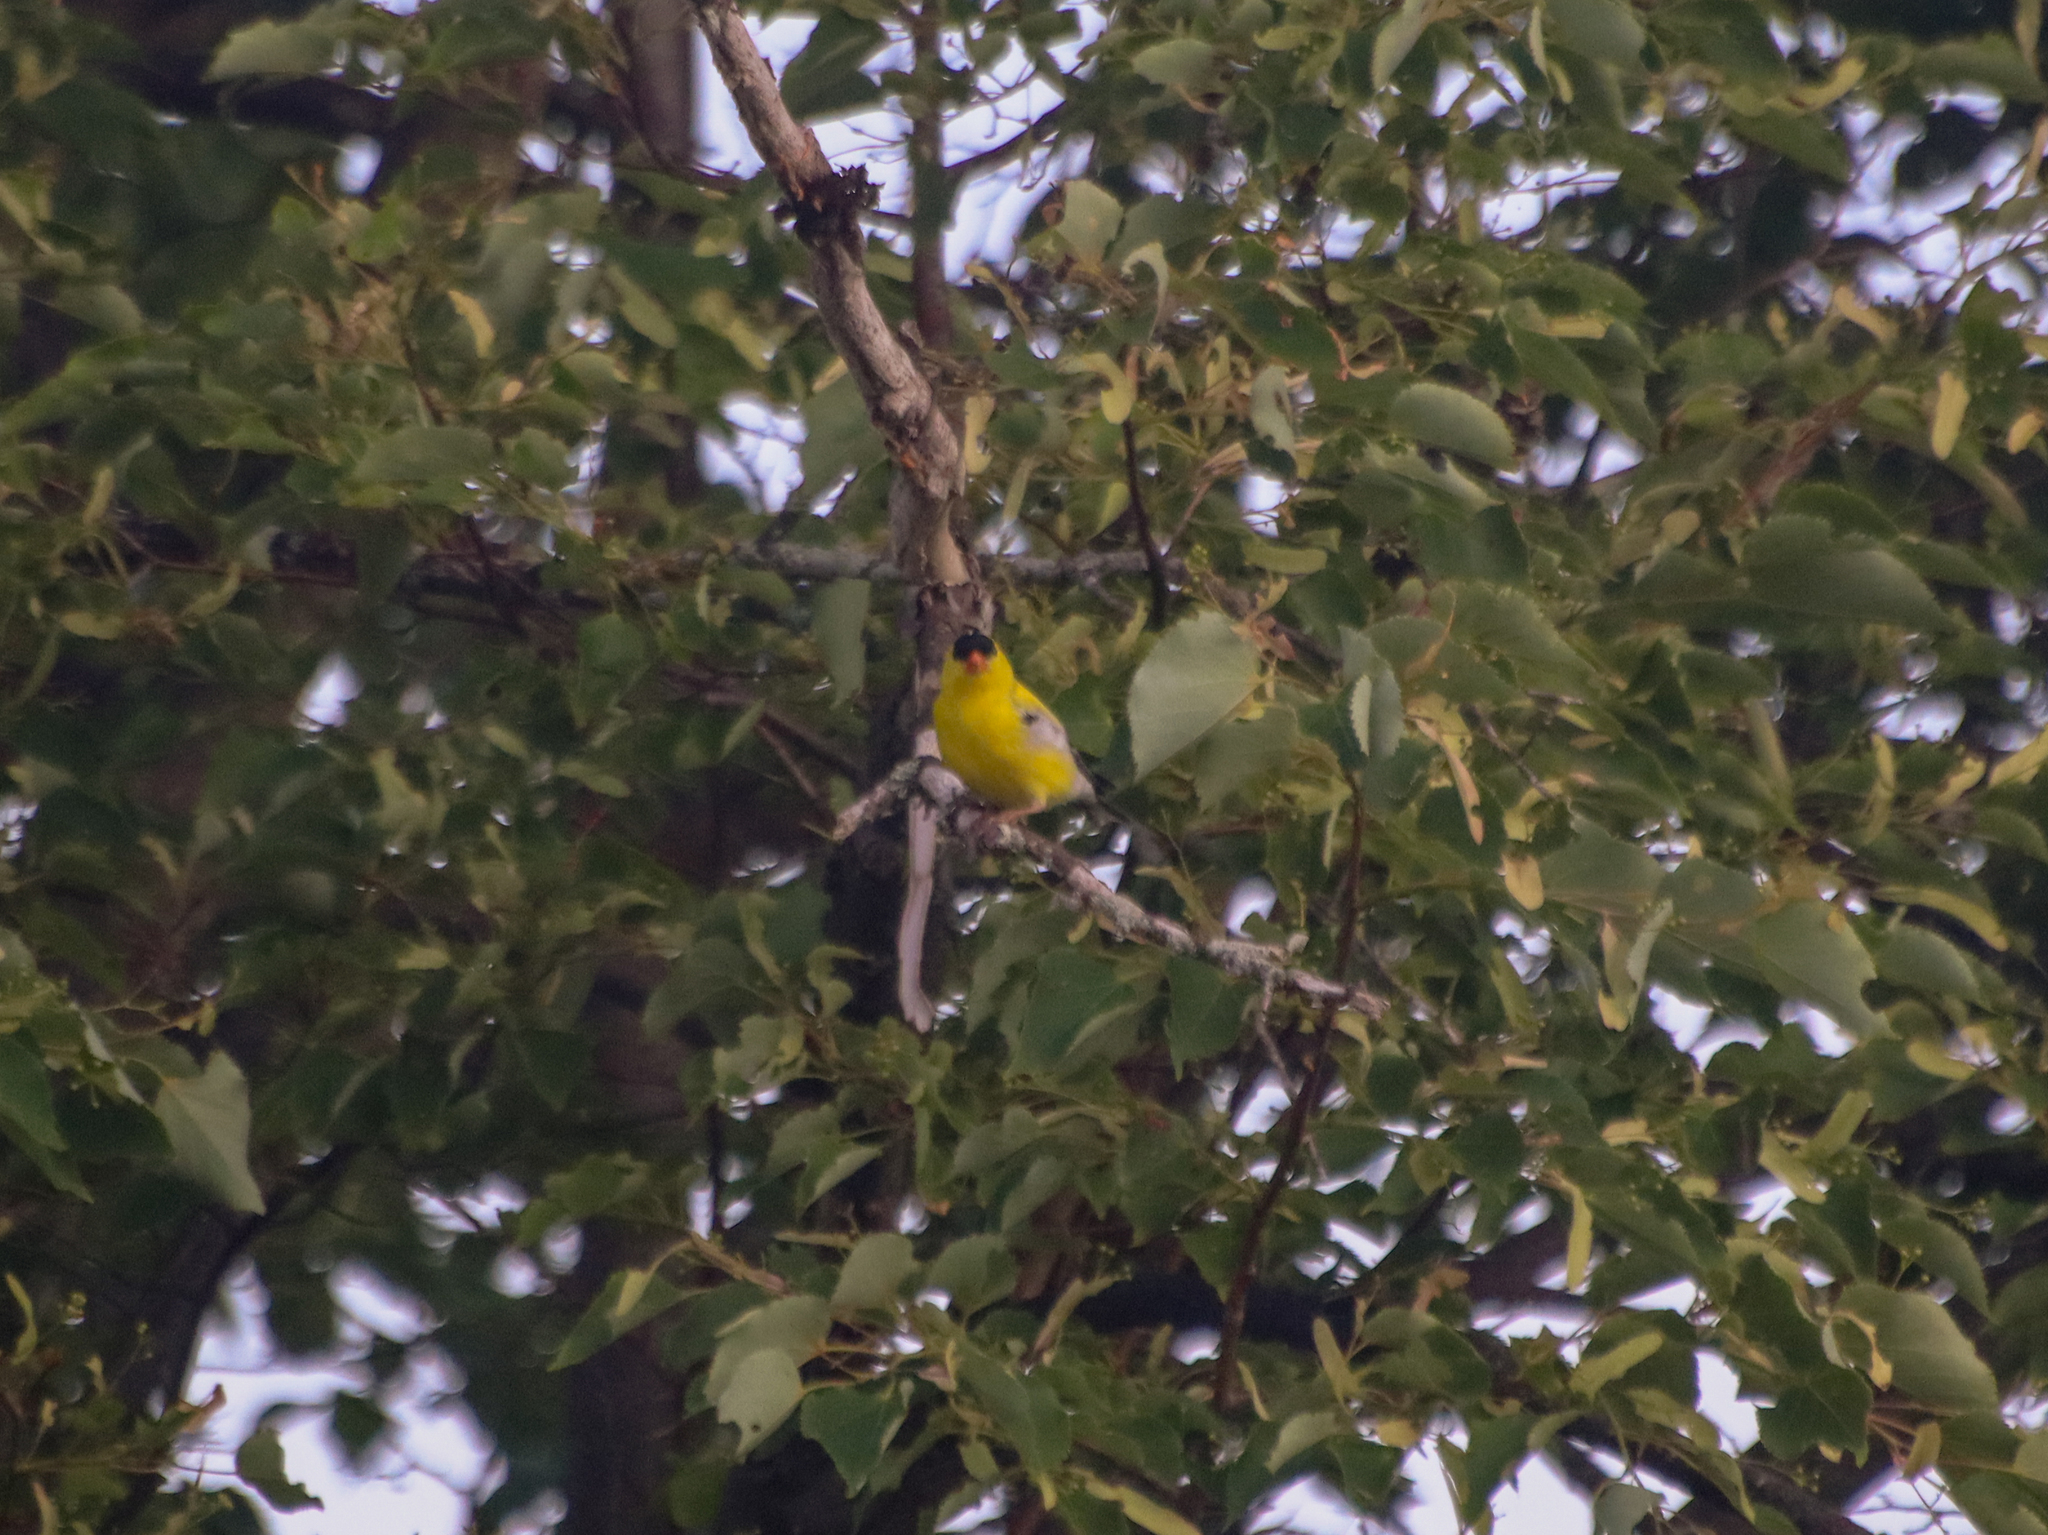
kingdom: Animalia
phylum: Chordata
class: Aves
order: Passeriformes
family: Fringillidae
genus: Spinus
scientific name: Spinus tristis
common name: American goldfinch
